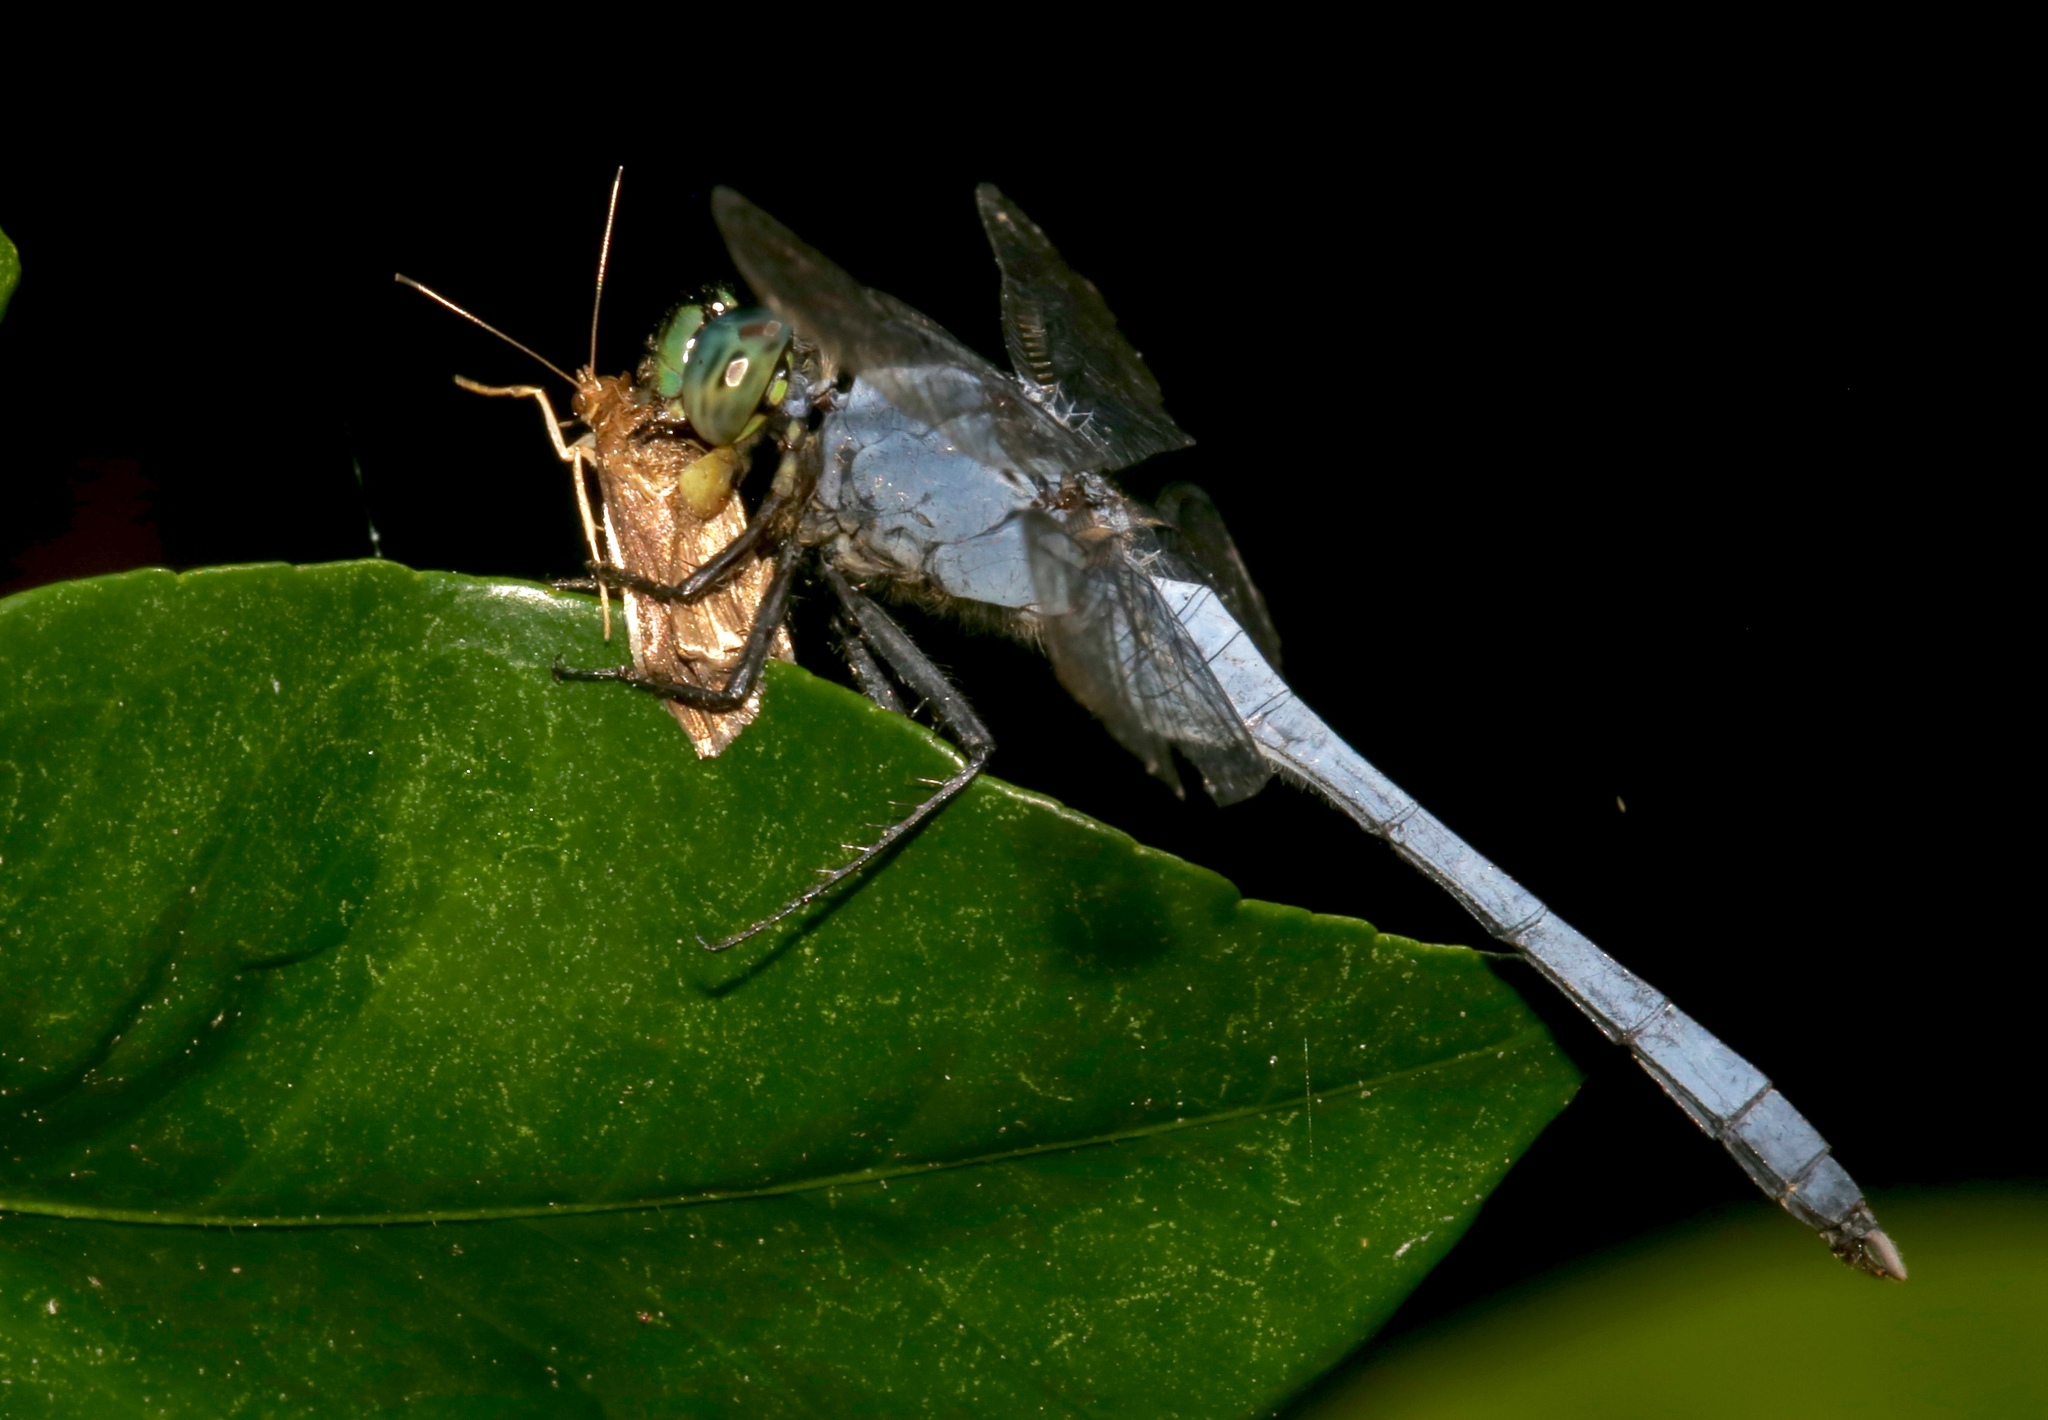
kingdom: Animalia
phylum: Arthropoda
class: Insecta
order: Odonata
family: Libellulidae
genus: Erythemis
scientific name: Erythemis simplicicollis
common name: Eastern pondhawk
